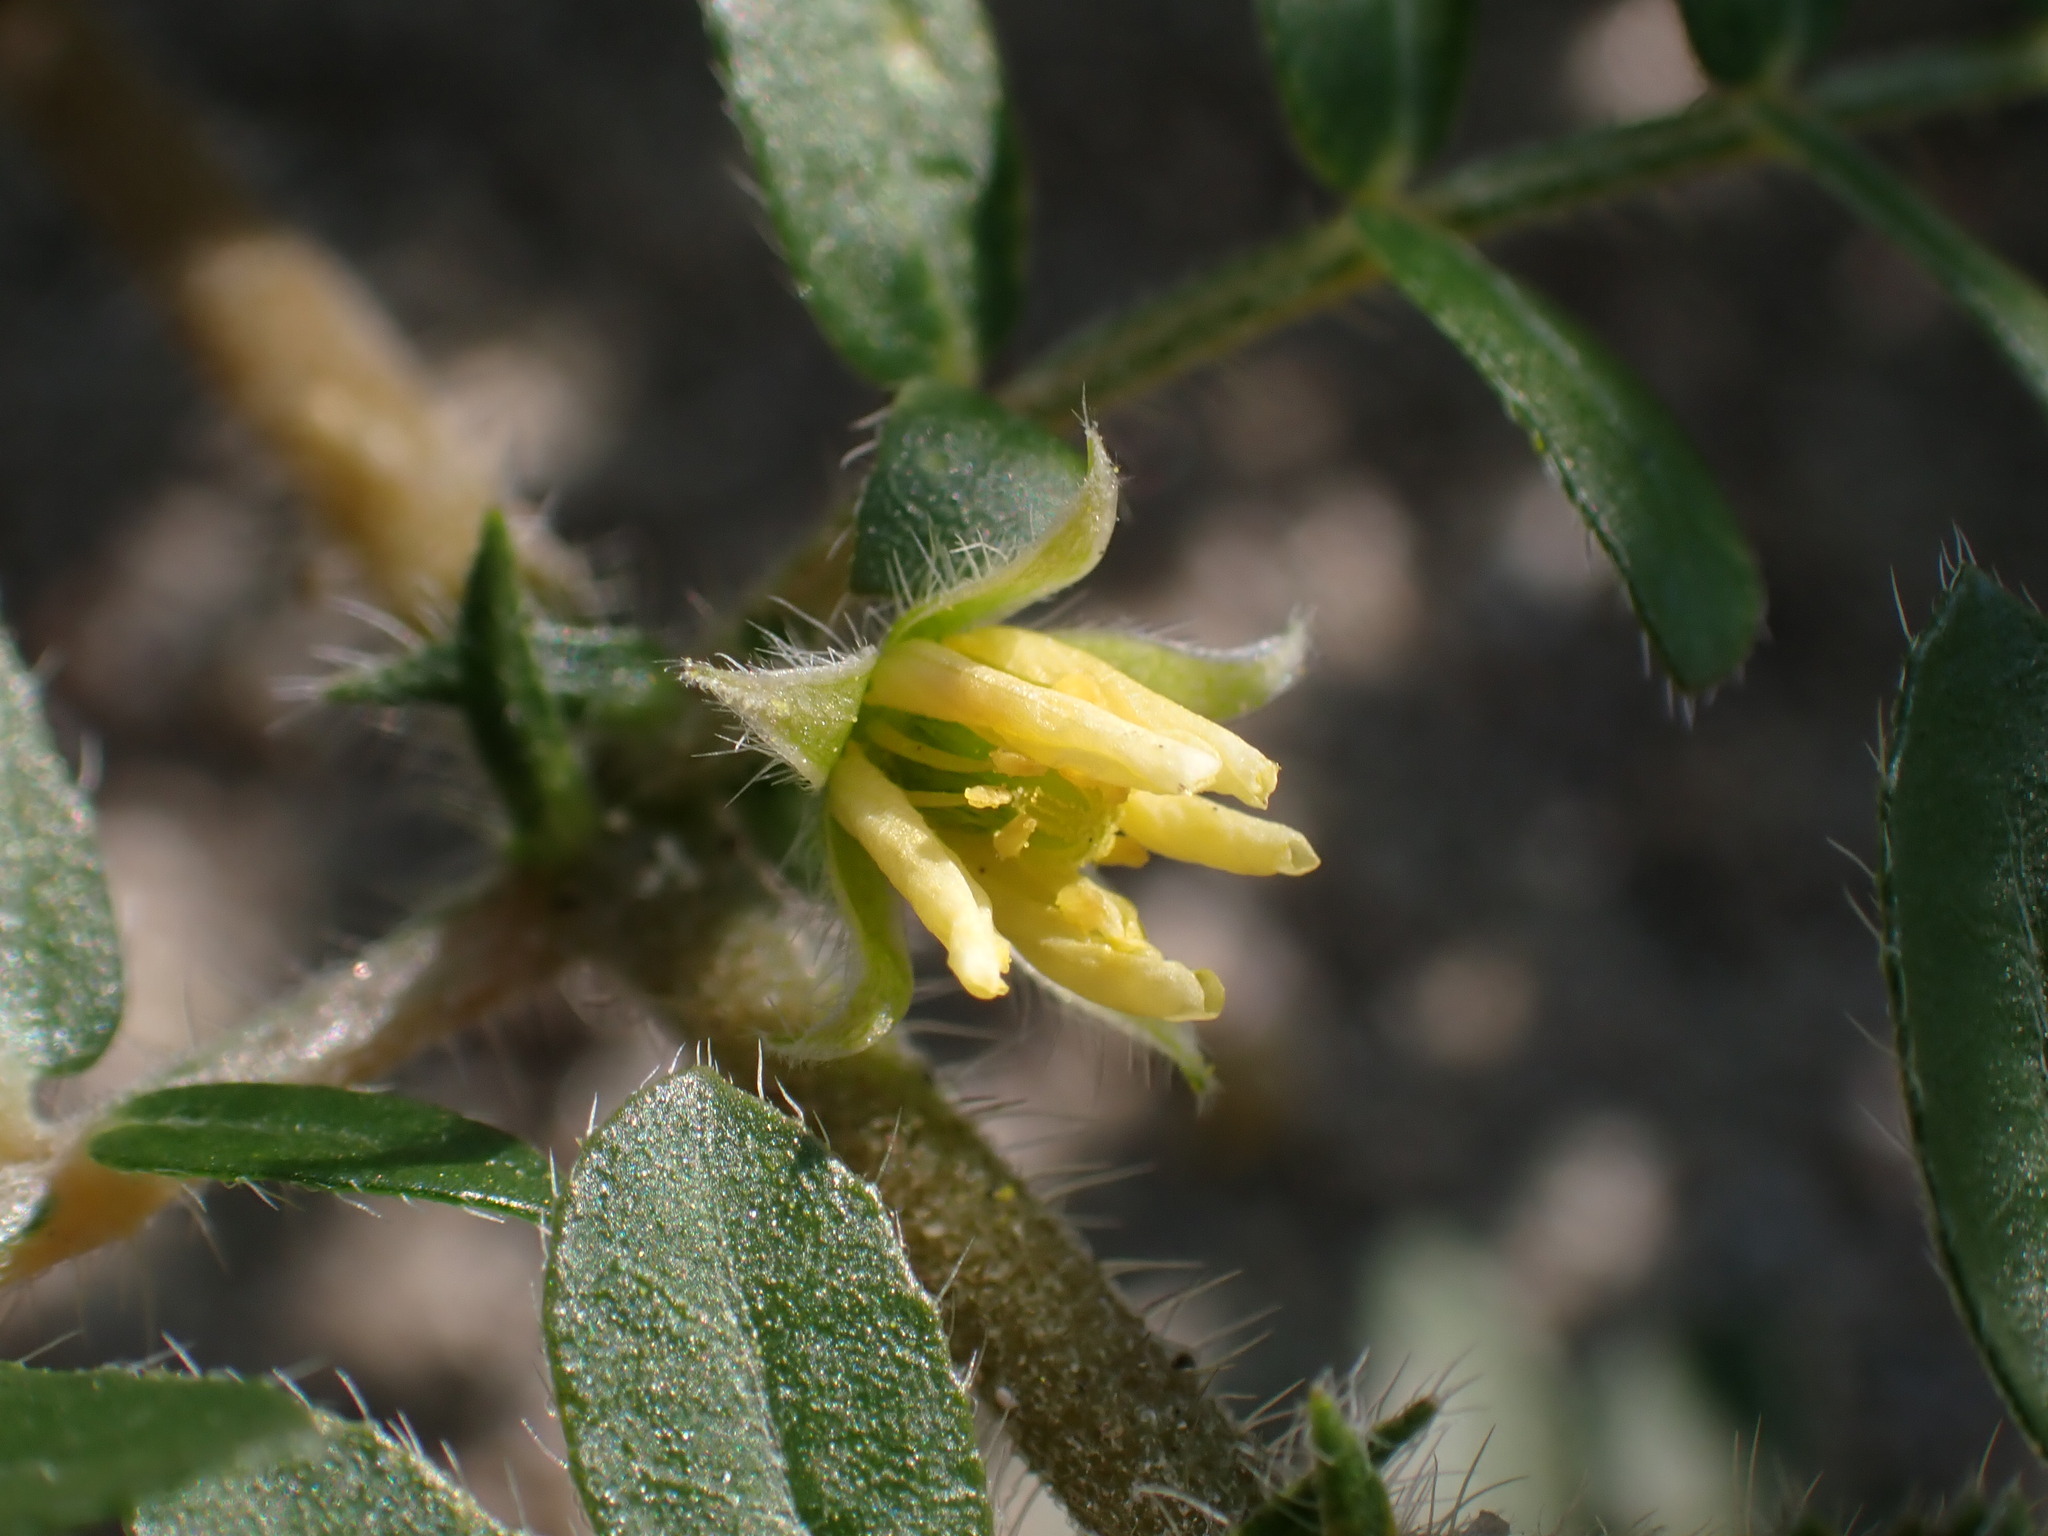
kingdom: Plantae
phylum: Tracheophyta
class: Magnoliopsida
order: Zygophyllales
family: Zygophyllaceae
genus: Tribulus
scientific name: Tribulus terrestris
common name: Puncturevine
